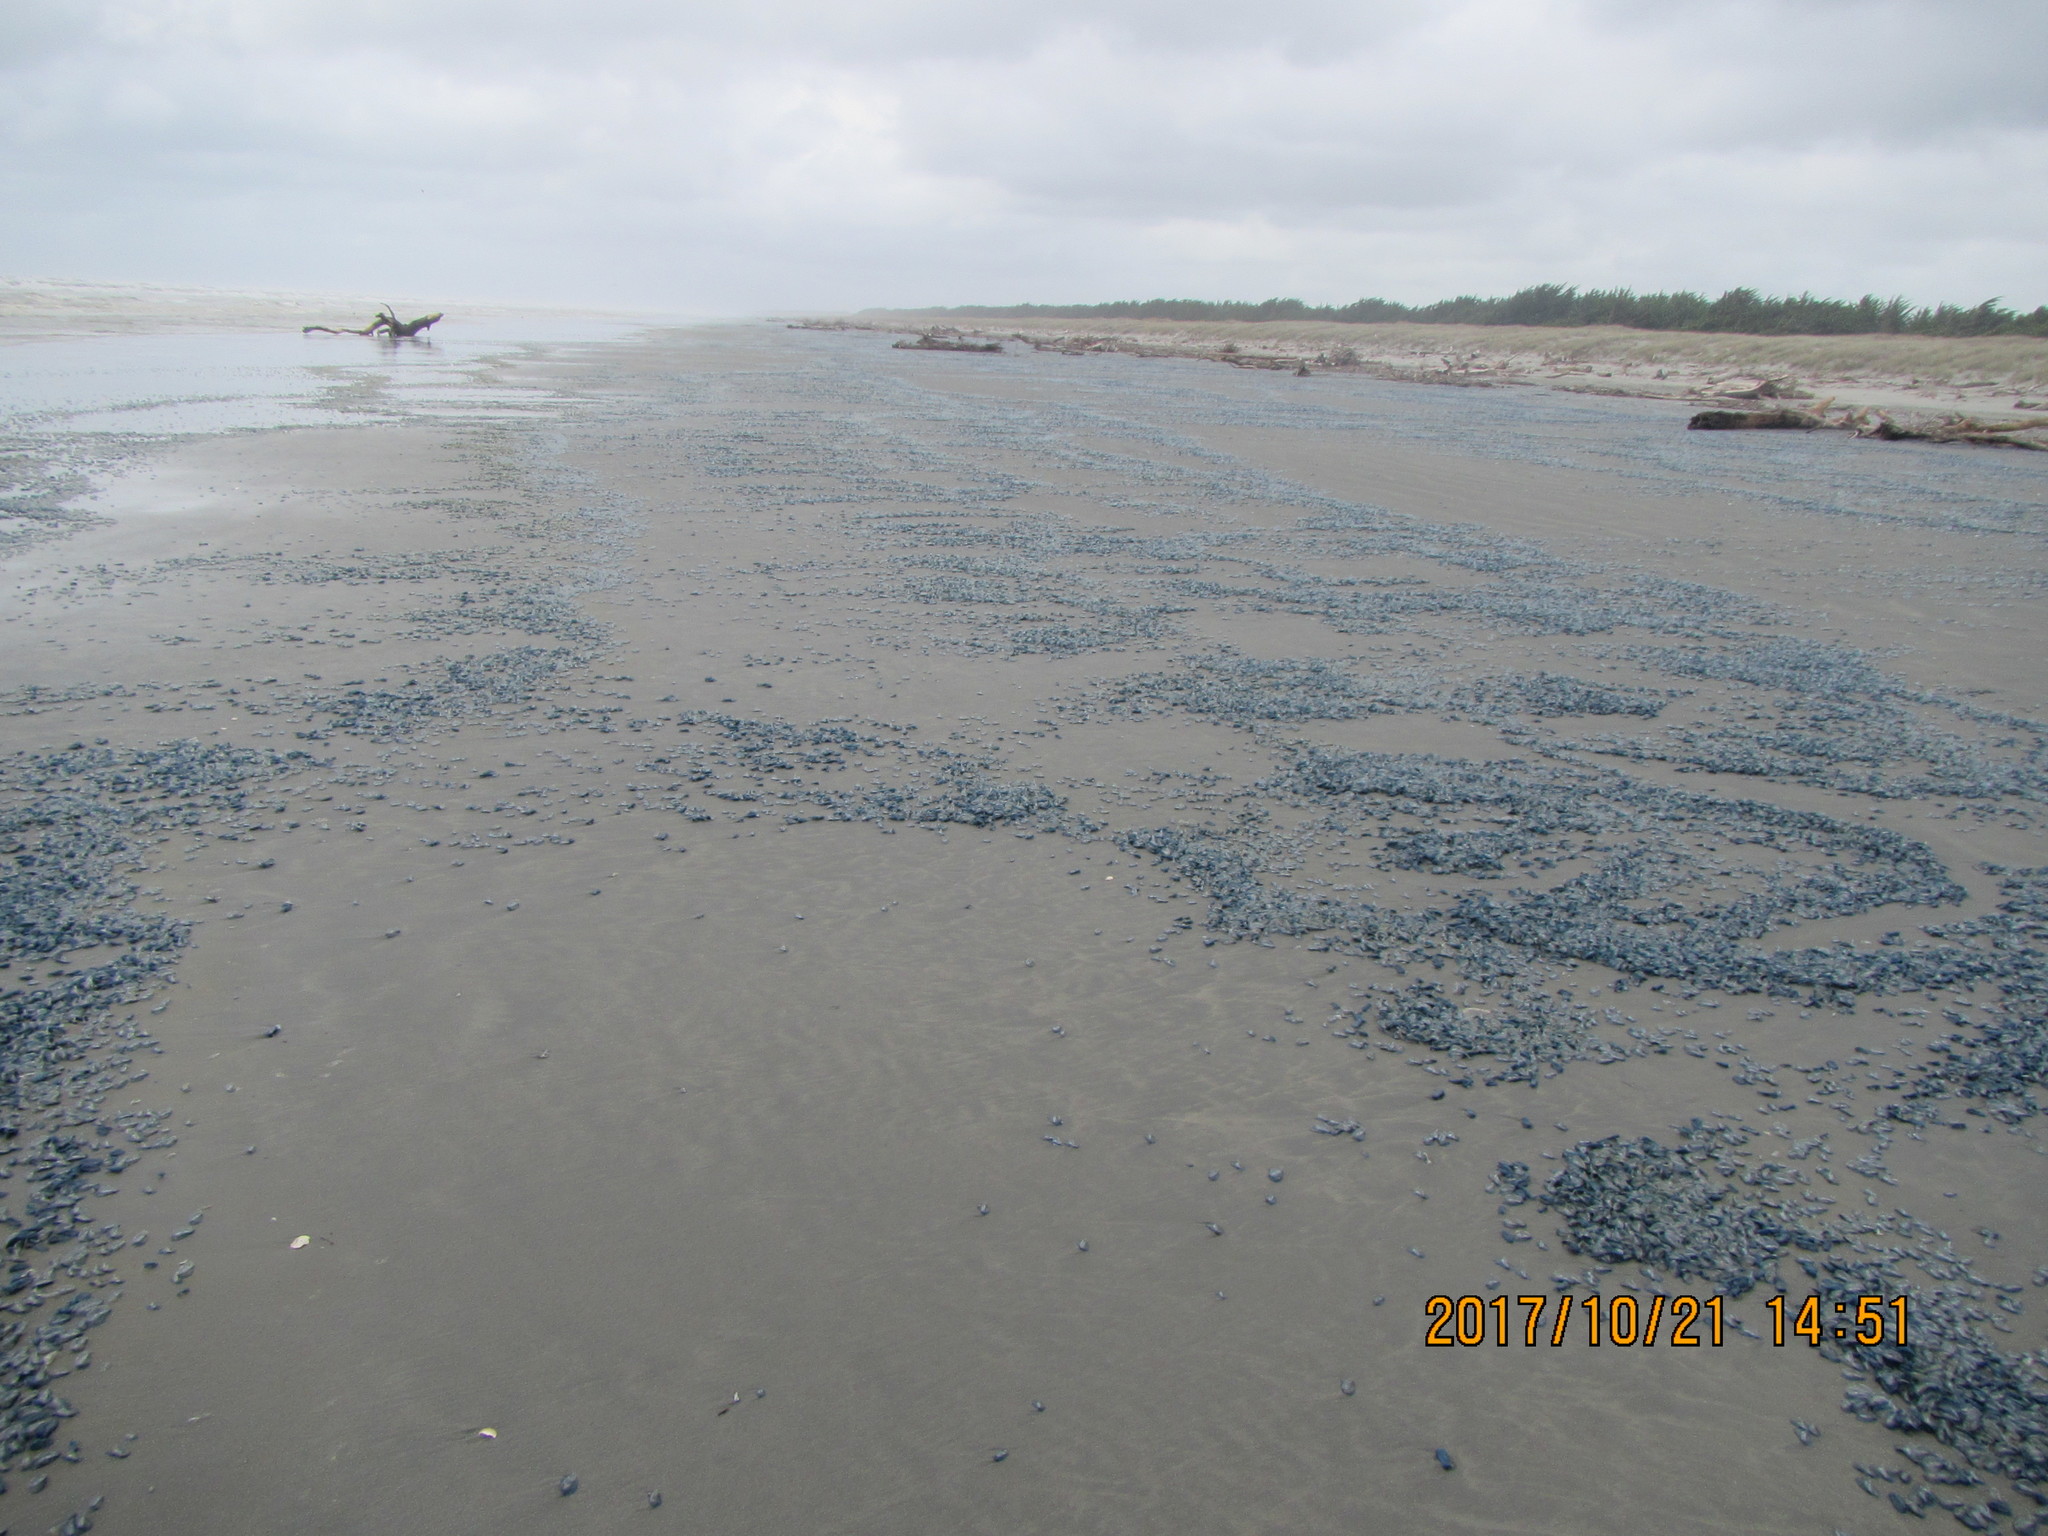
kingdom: Animalia
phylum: Cnidaria
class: Hydrozoa
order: Anthoathecata
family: Porpitidae
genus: Velella
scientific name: Velella velella
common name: By-the-wind-sailor
